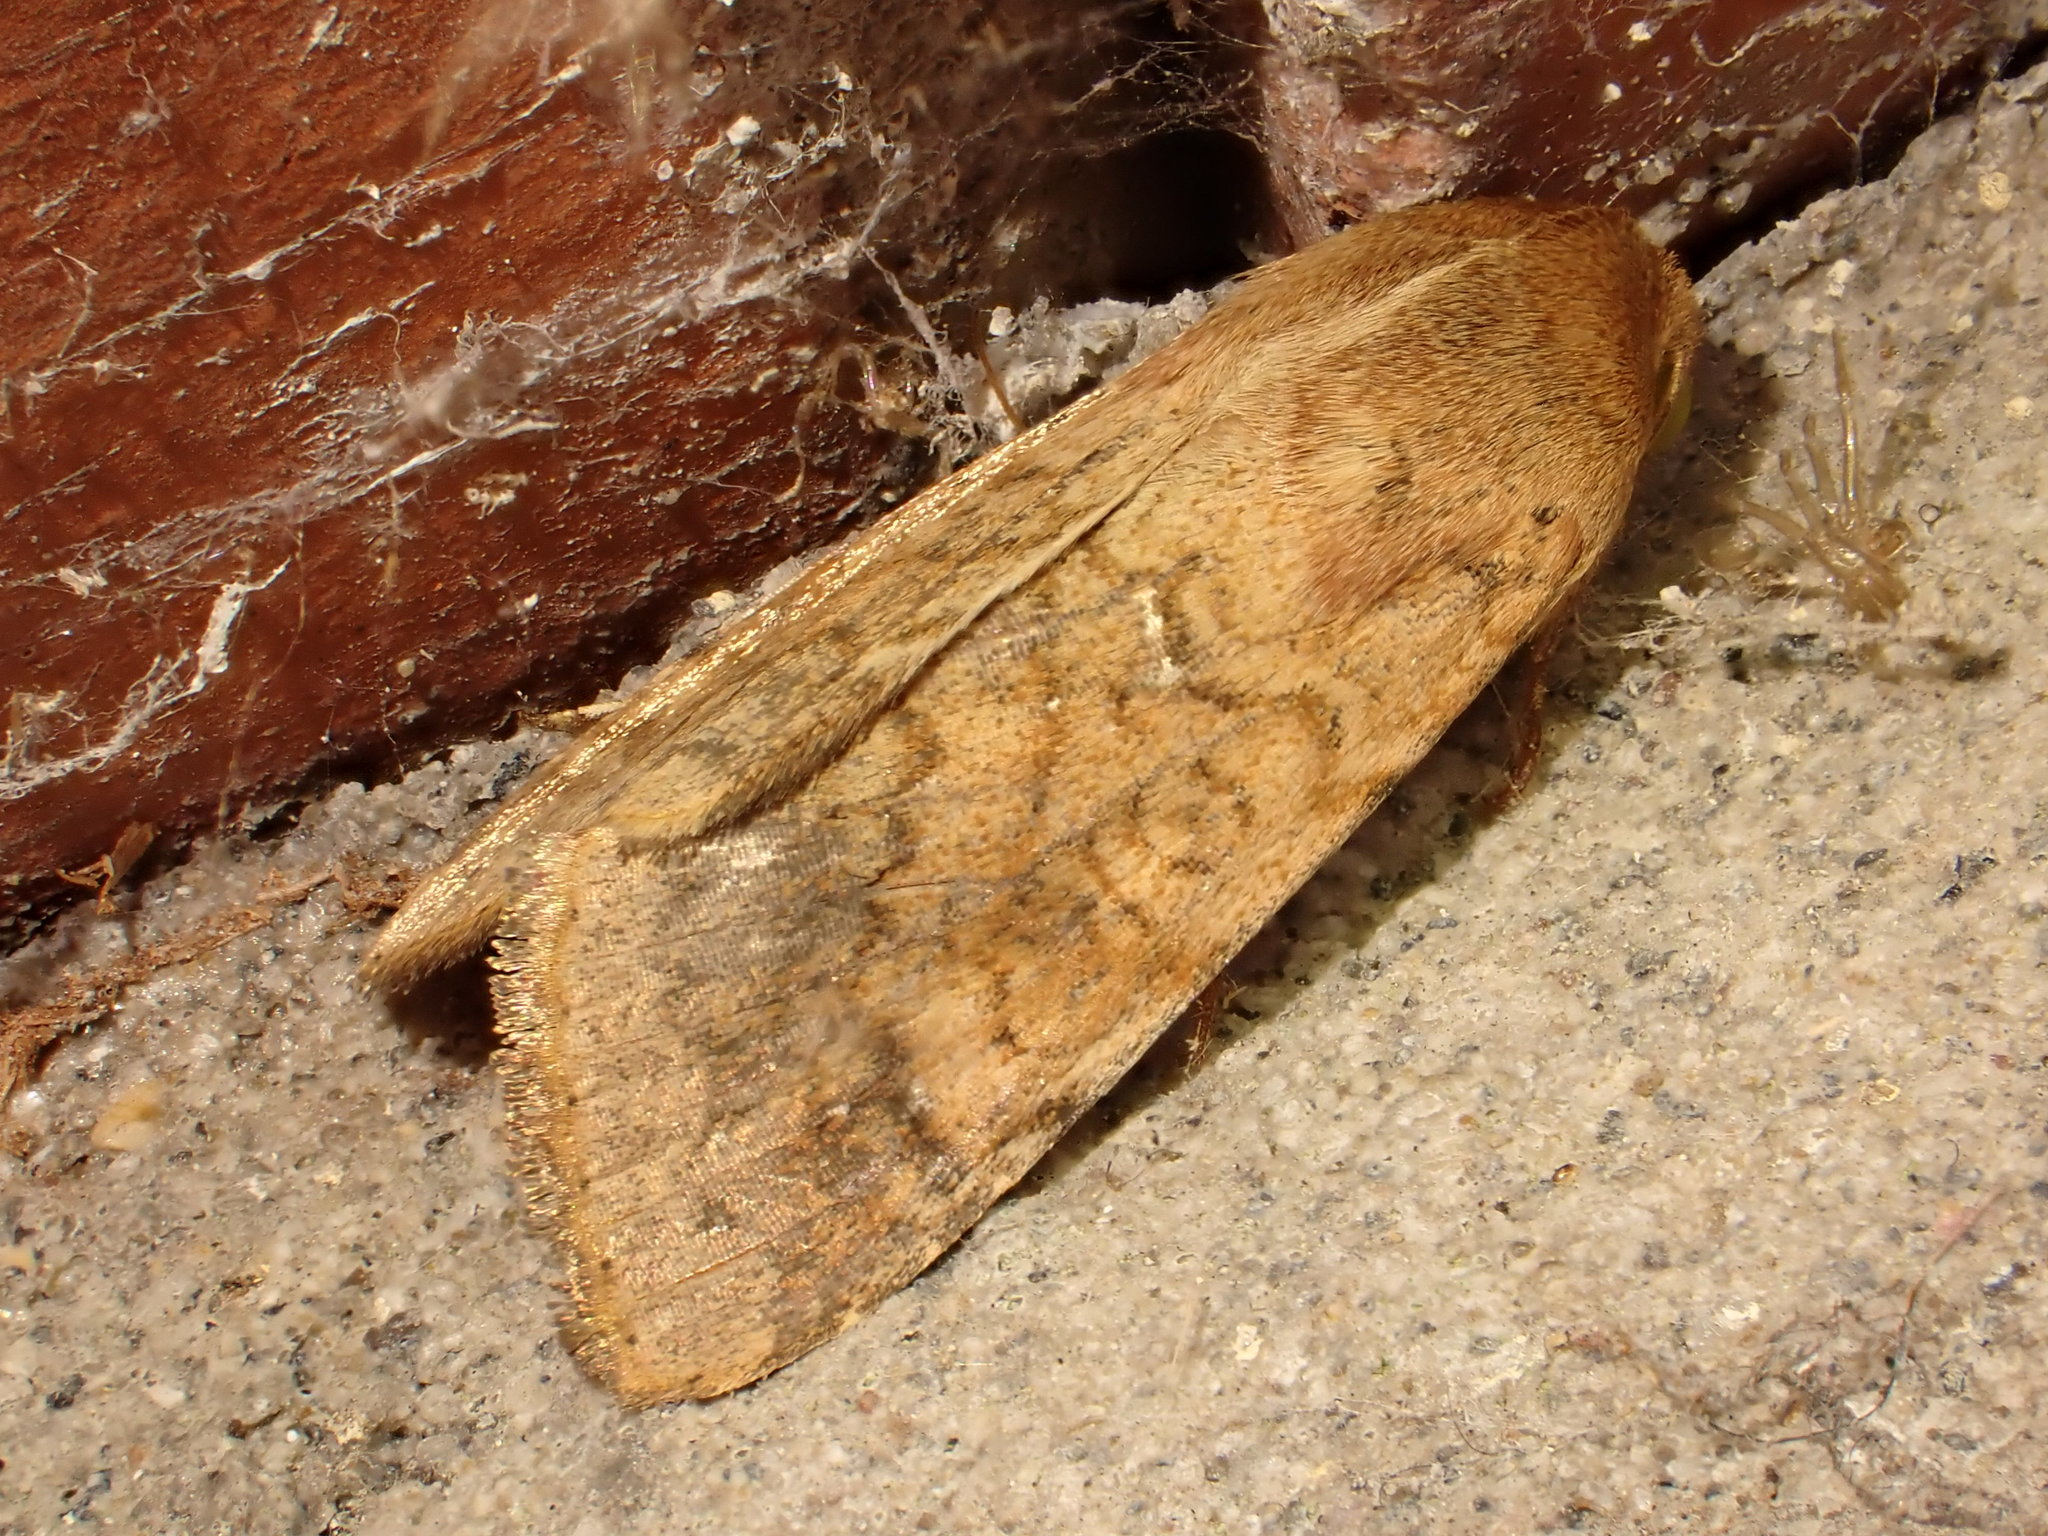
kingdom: Animalia
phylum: Arthropoda
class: Insecta
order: Lepidoptera
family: Noctuidae
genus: Helicoverpa
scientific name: Helicoverpa armigera
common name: Cotton bollworm
